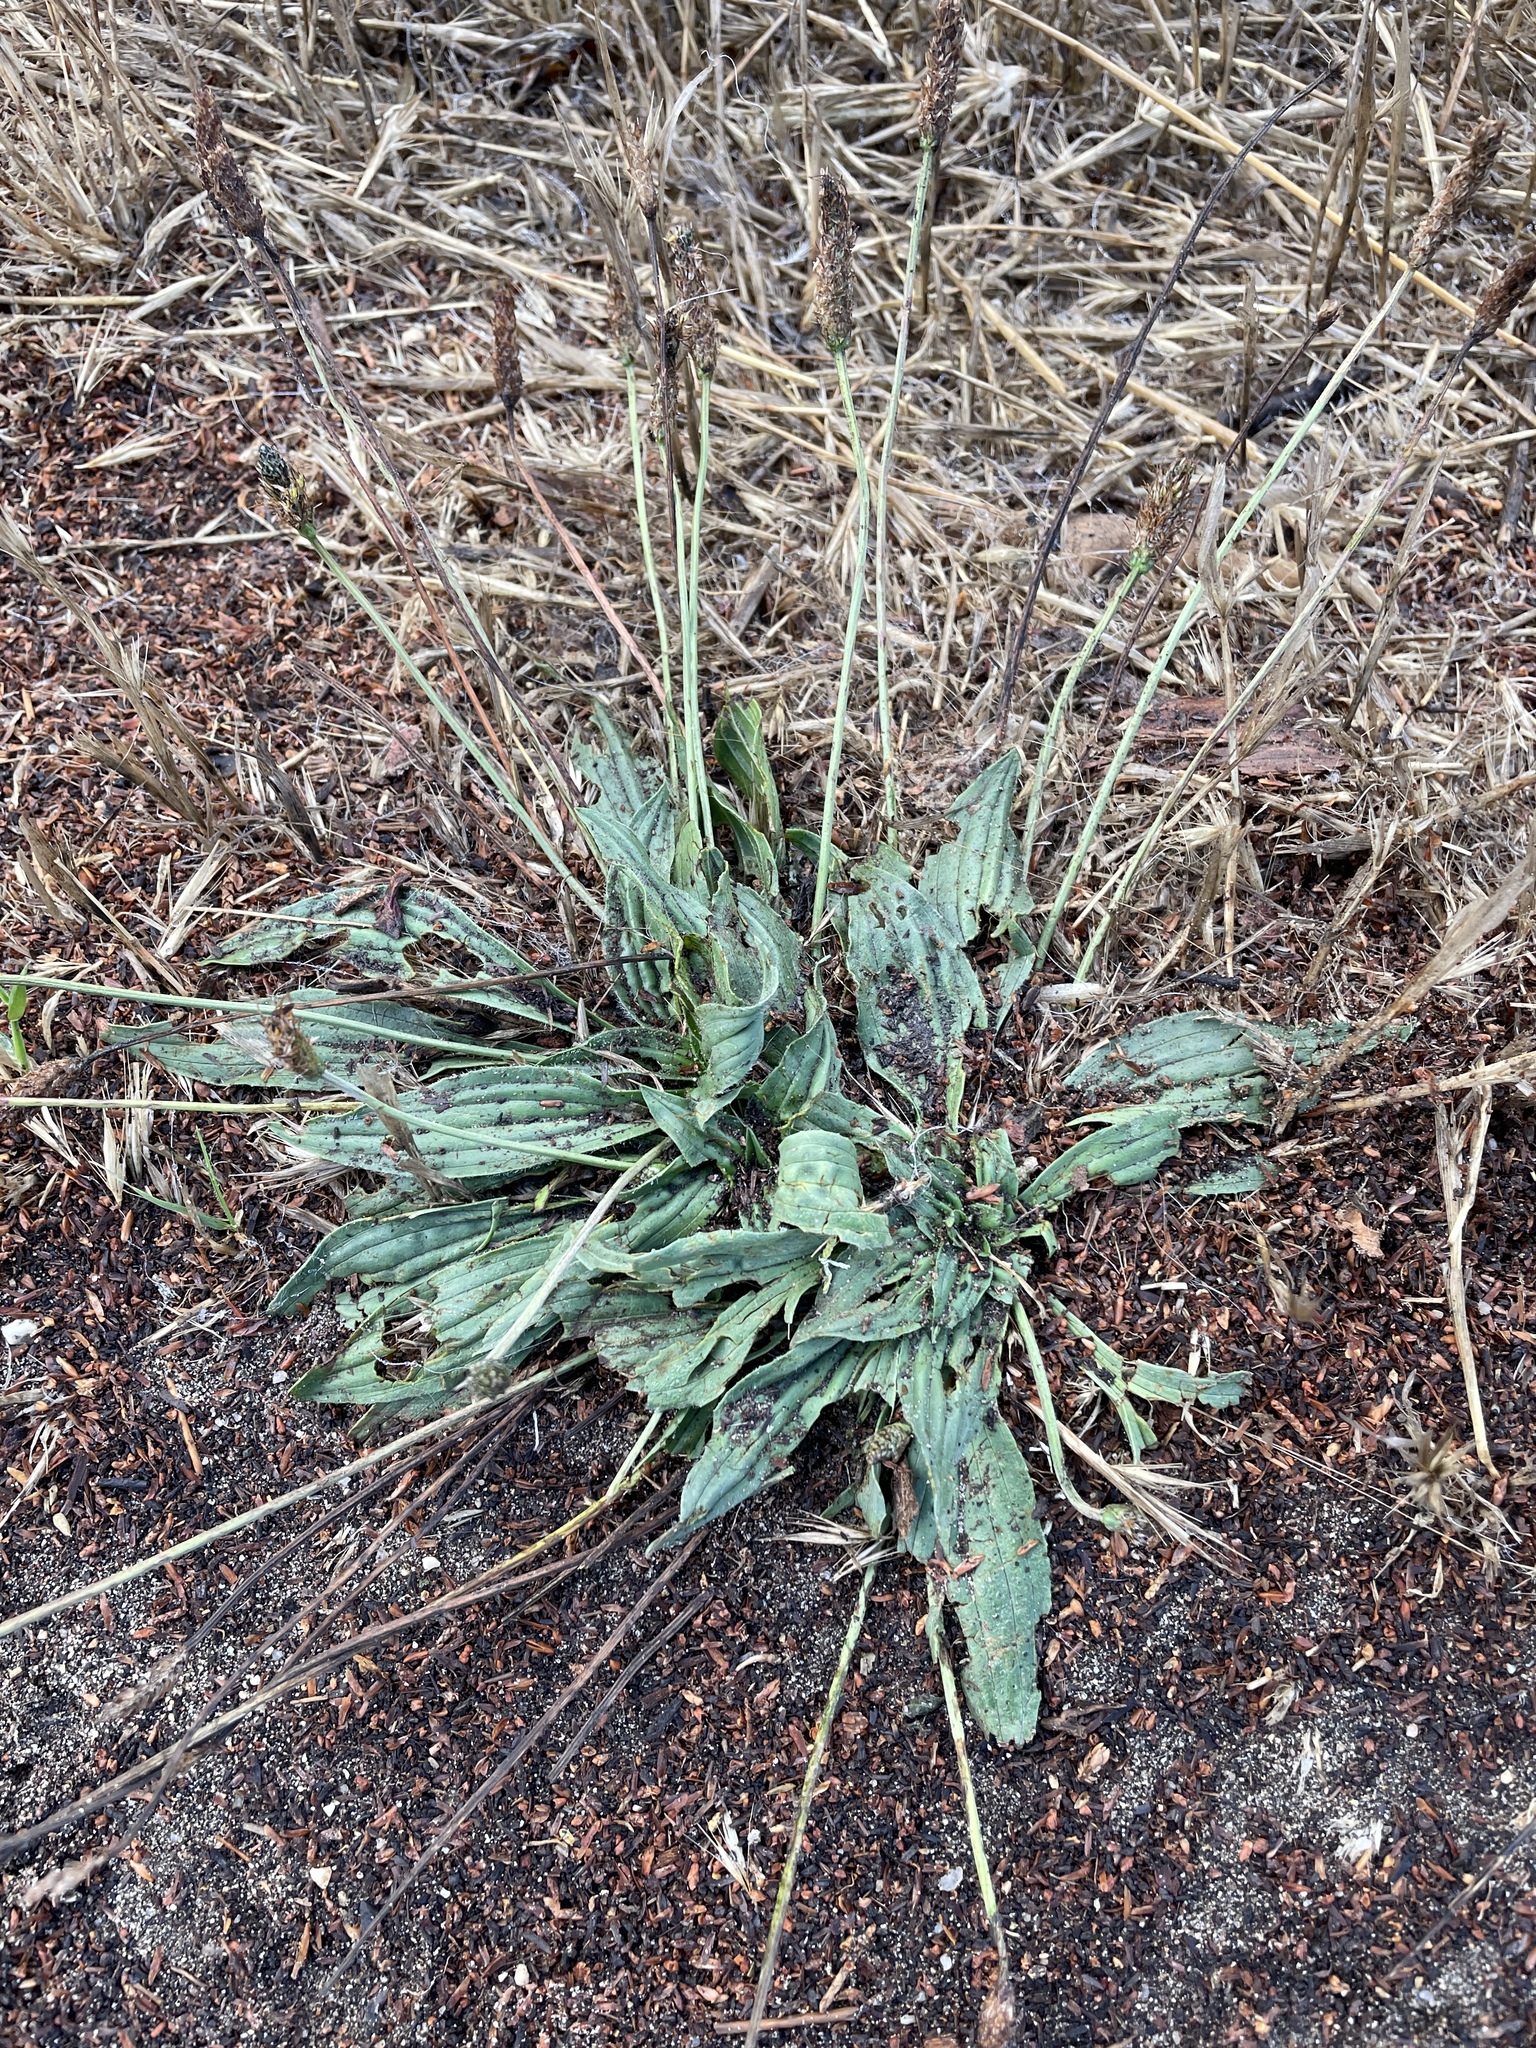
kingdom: Plantae
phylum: Tracheophyta
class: Magnoliopsida
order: Lamiales
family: Plantaginaceae
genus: Plantago
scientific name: Plantago lanceolata
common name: Ribwort plantain
